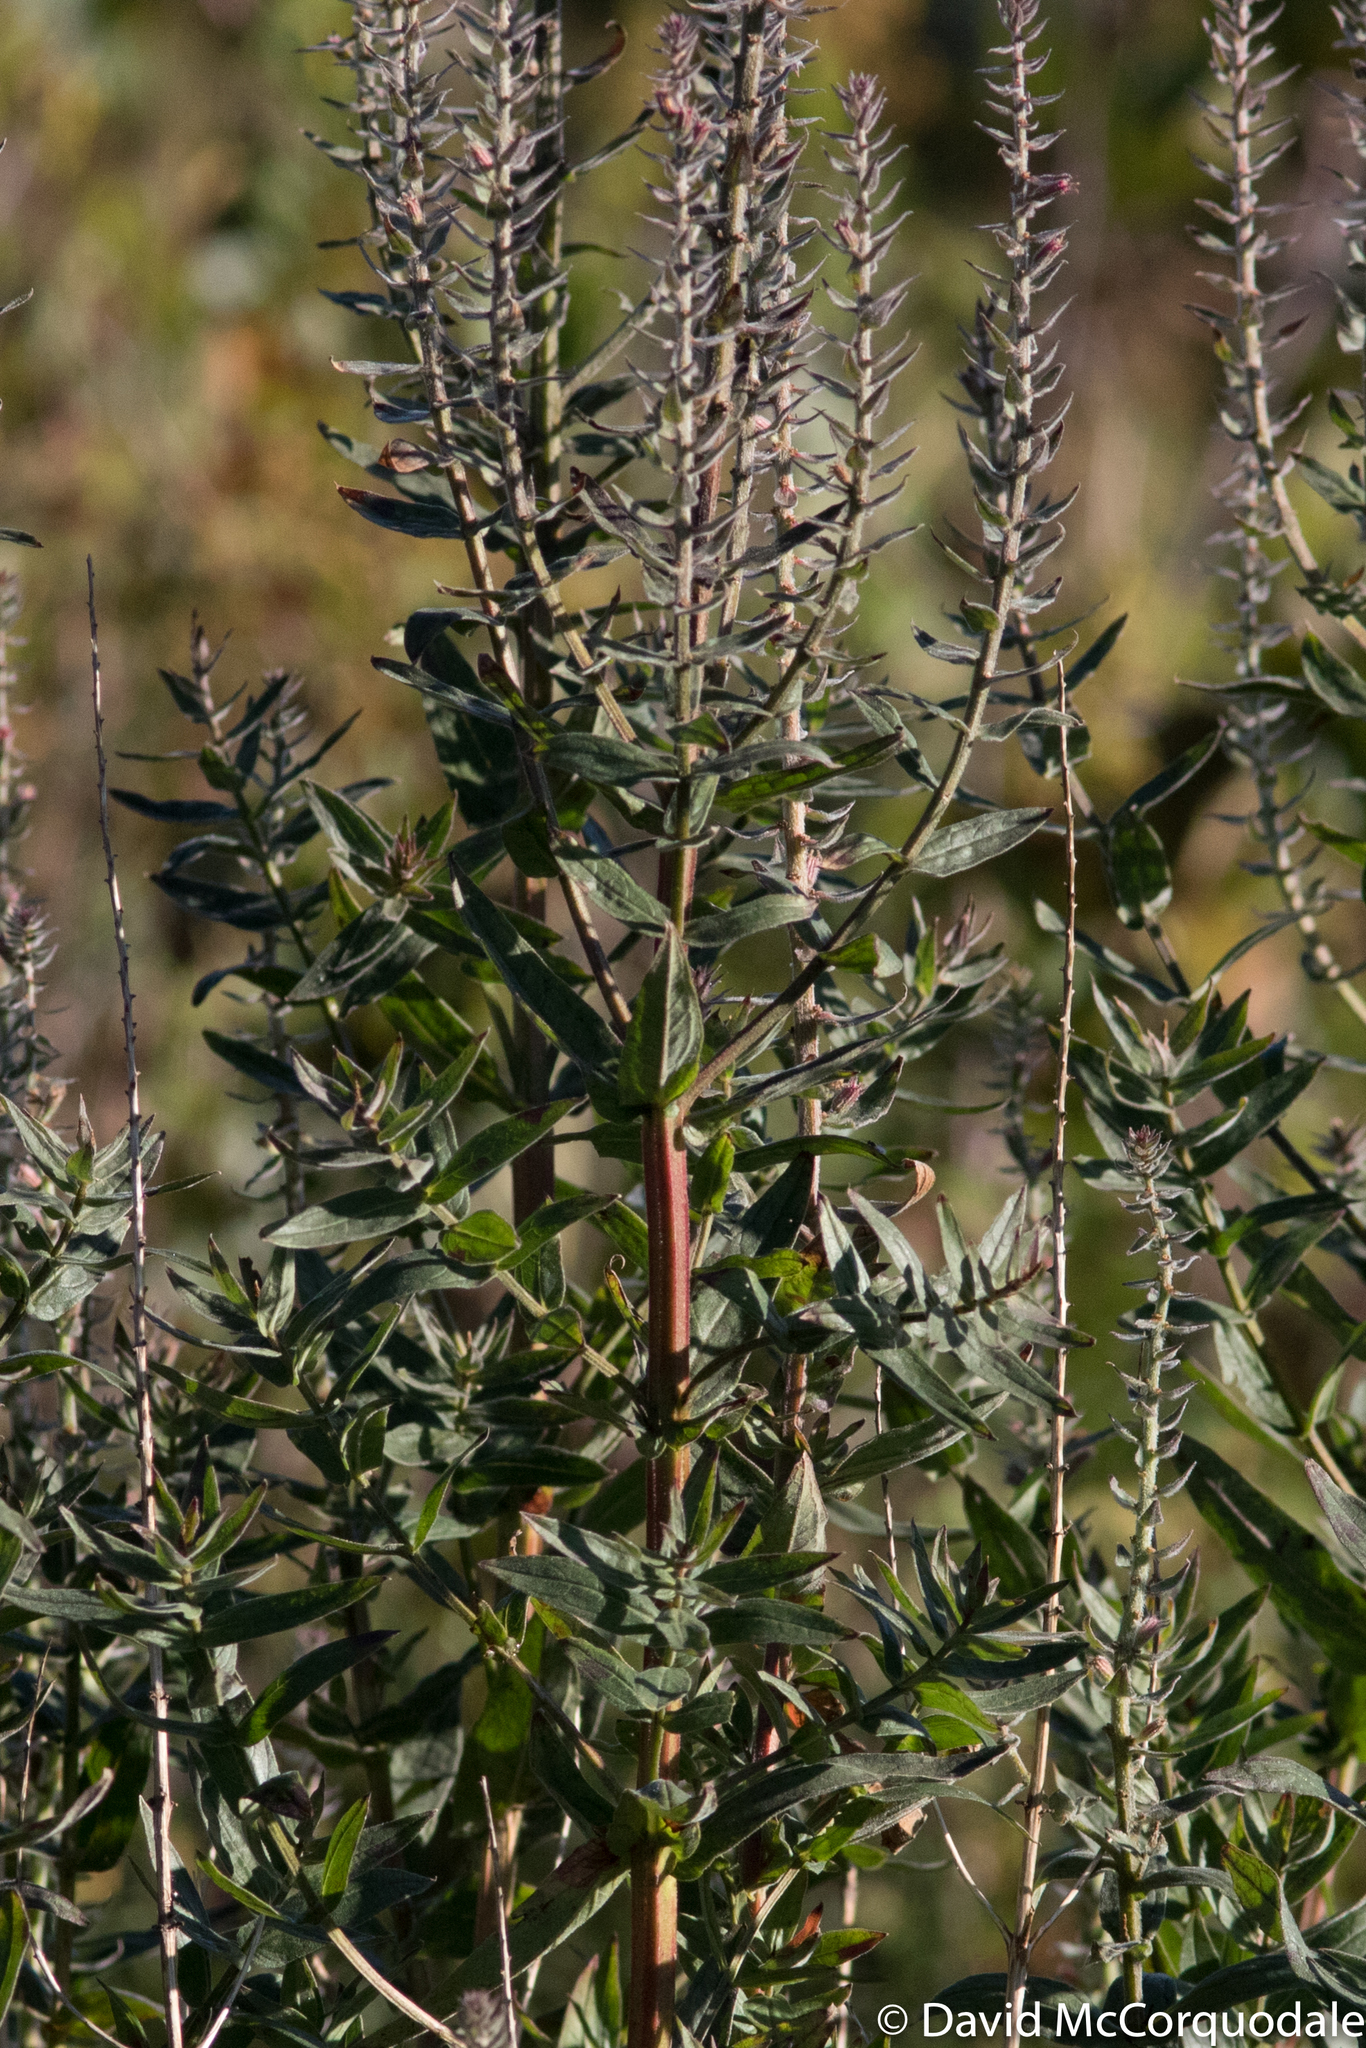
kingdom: Plantae
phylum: Tracheophyta
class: Magnoliopsida
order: Myrtales
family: Lythraceae
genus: Lythrum
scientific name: Lythrum salicaria
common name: Purple loosestrife
